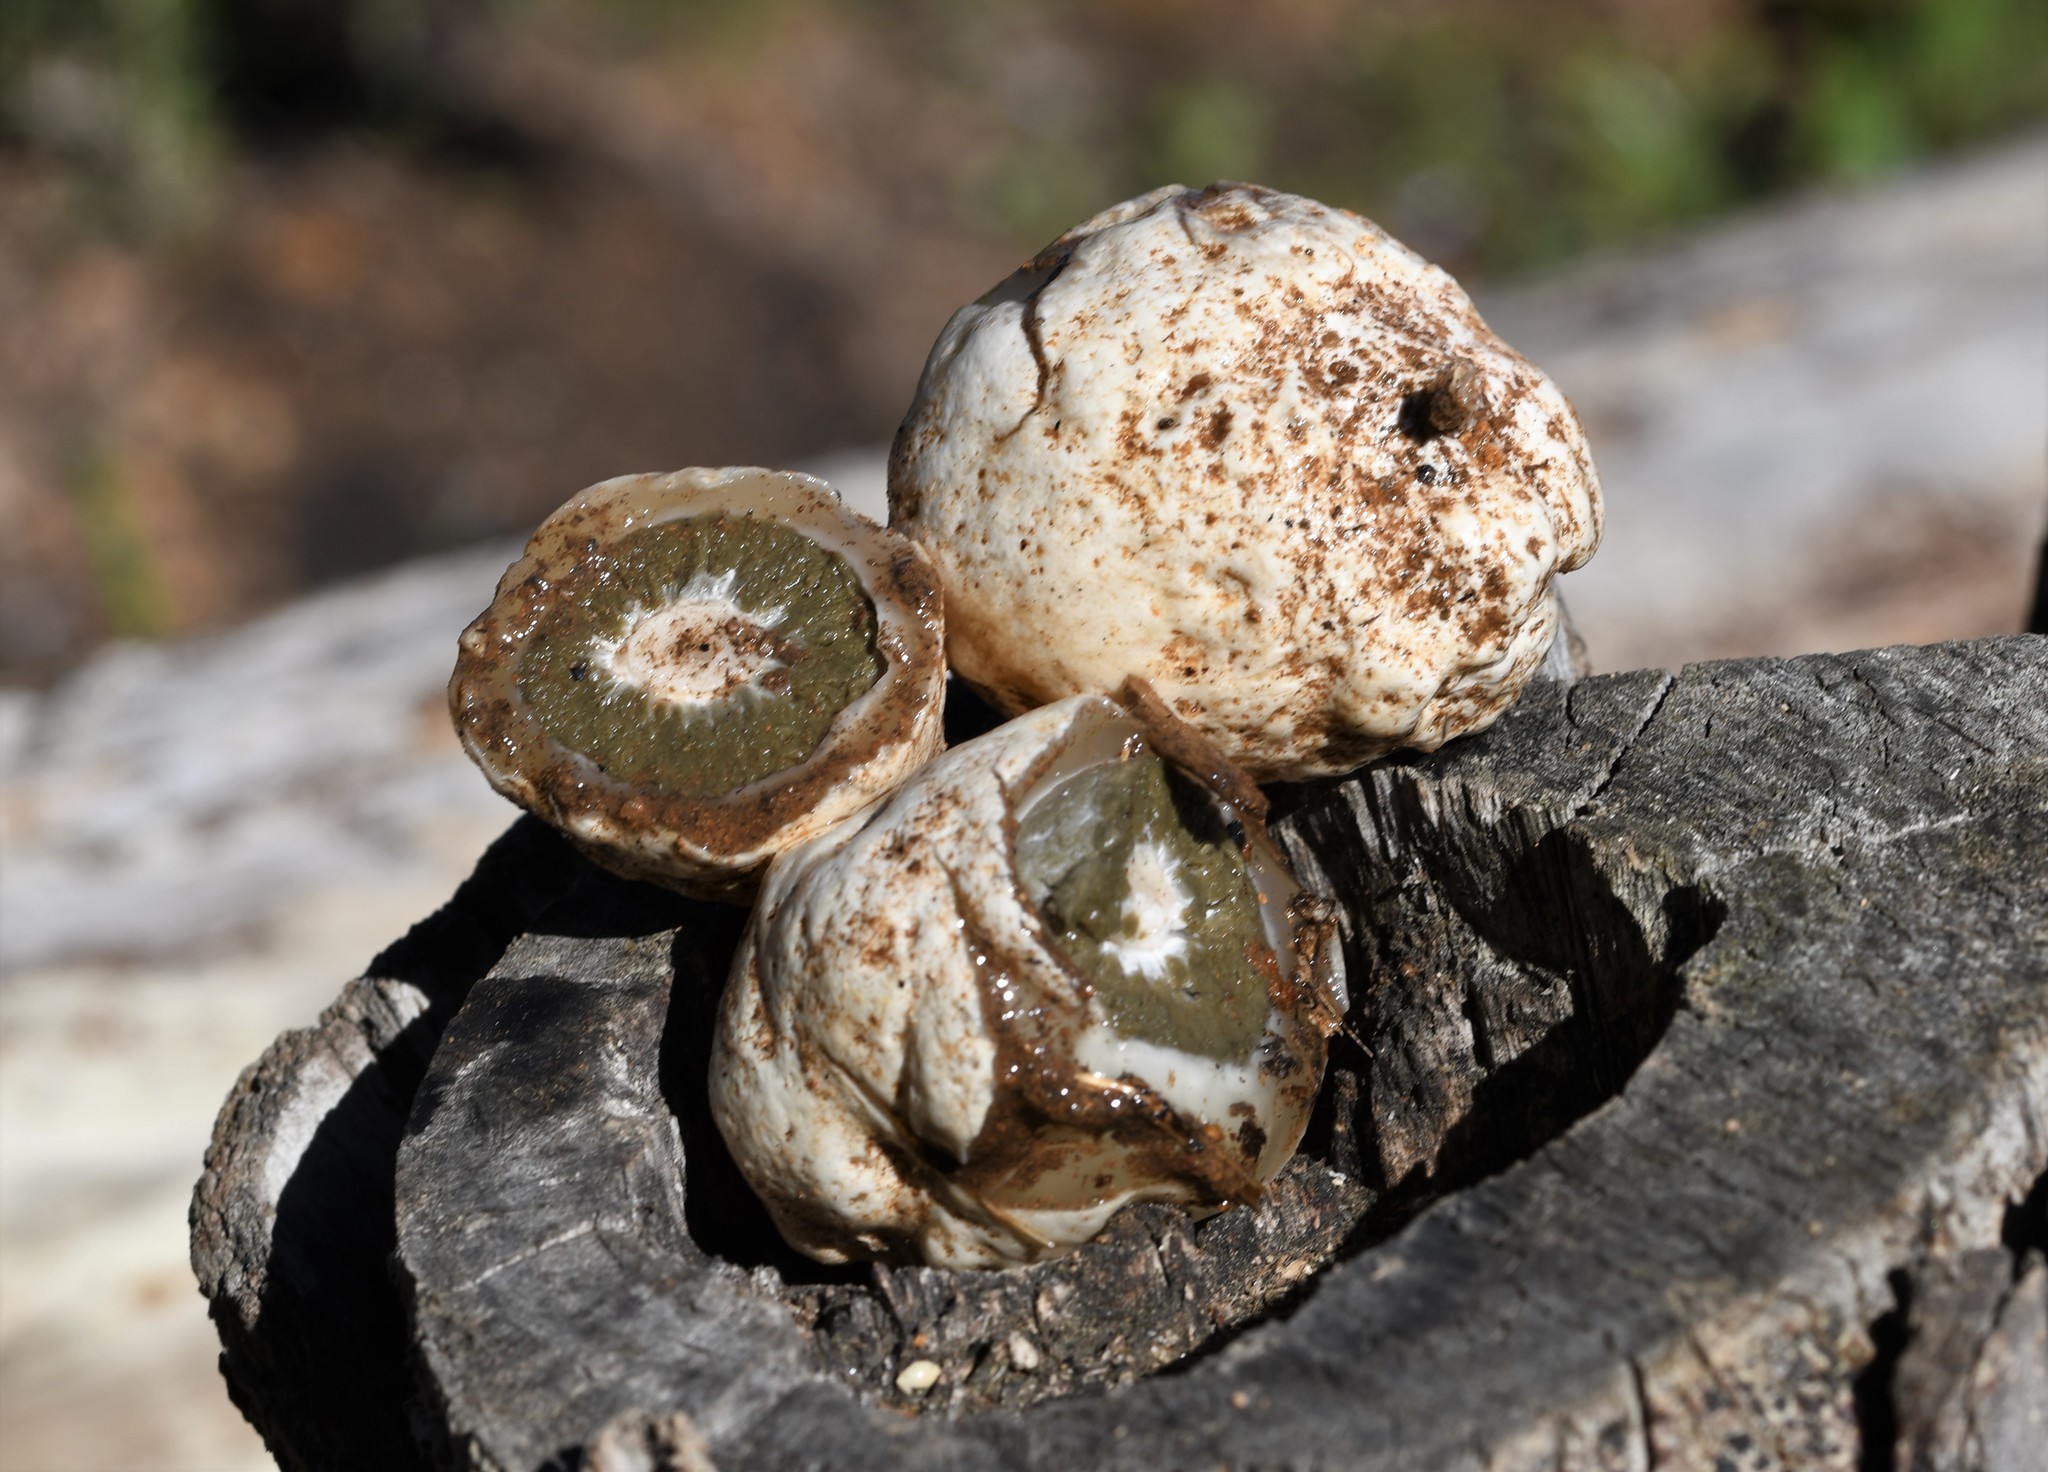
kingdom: Fungi
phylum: Basidiomycota
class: Agaricomycetes
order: Phallales
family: Phallaceae
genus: Phallus
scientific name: Phallus impudicus
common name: Common stinkhorn
